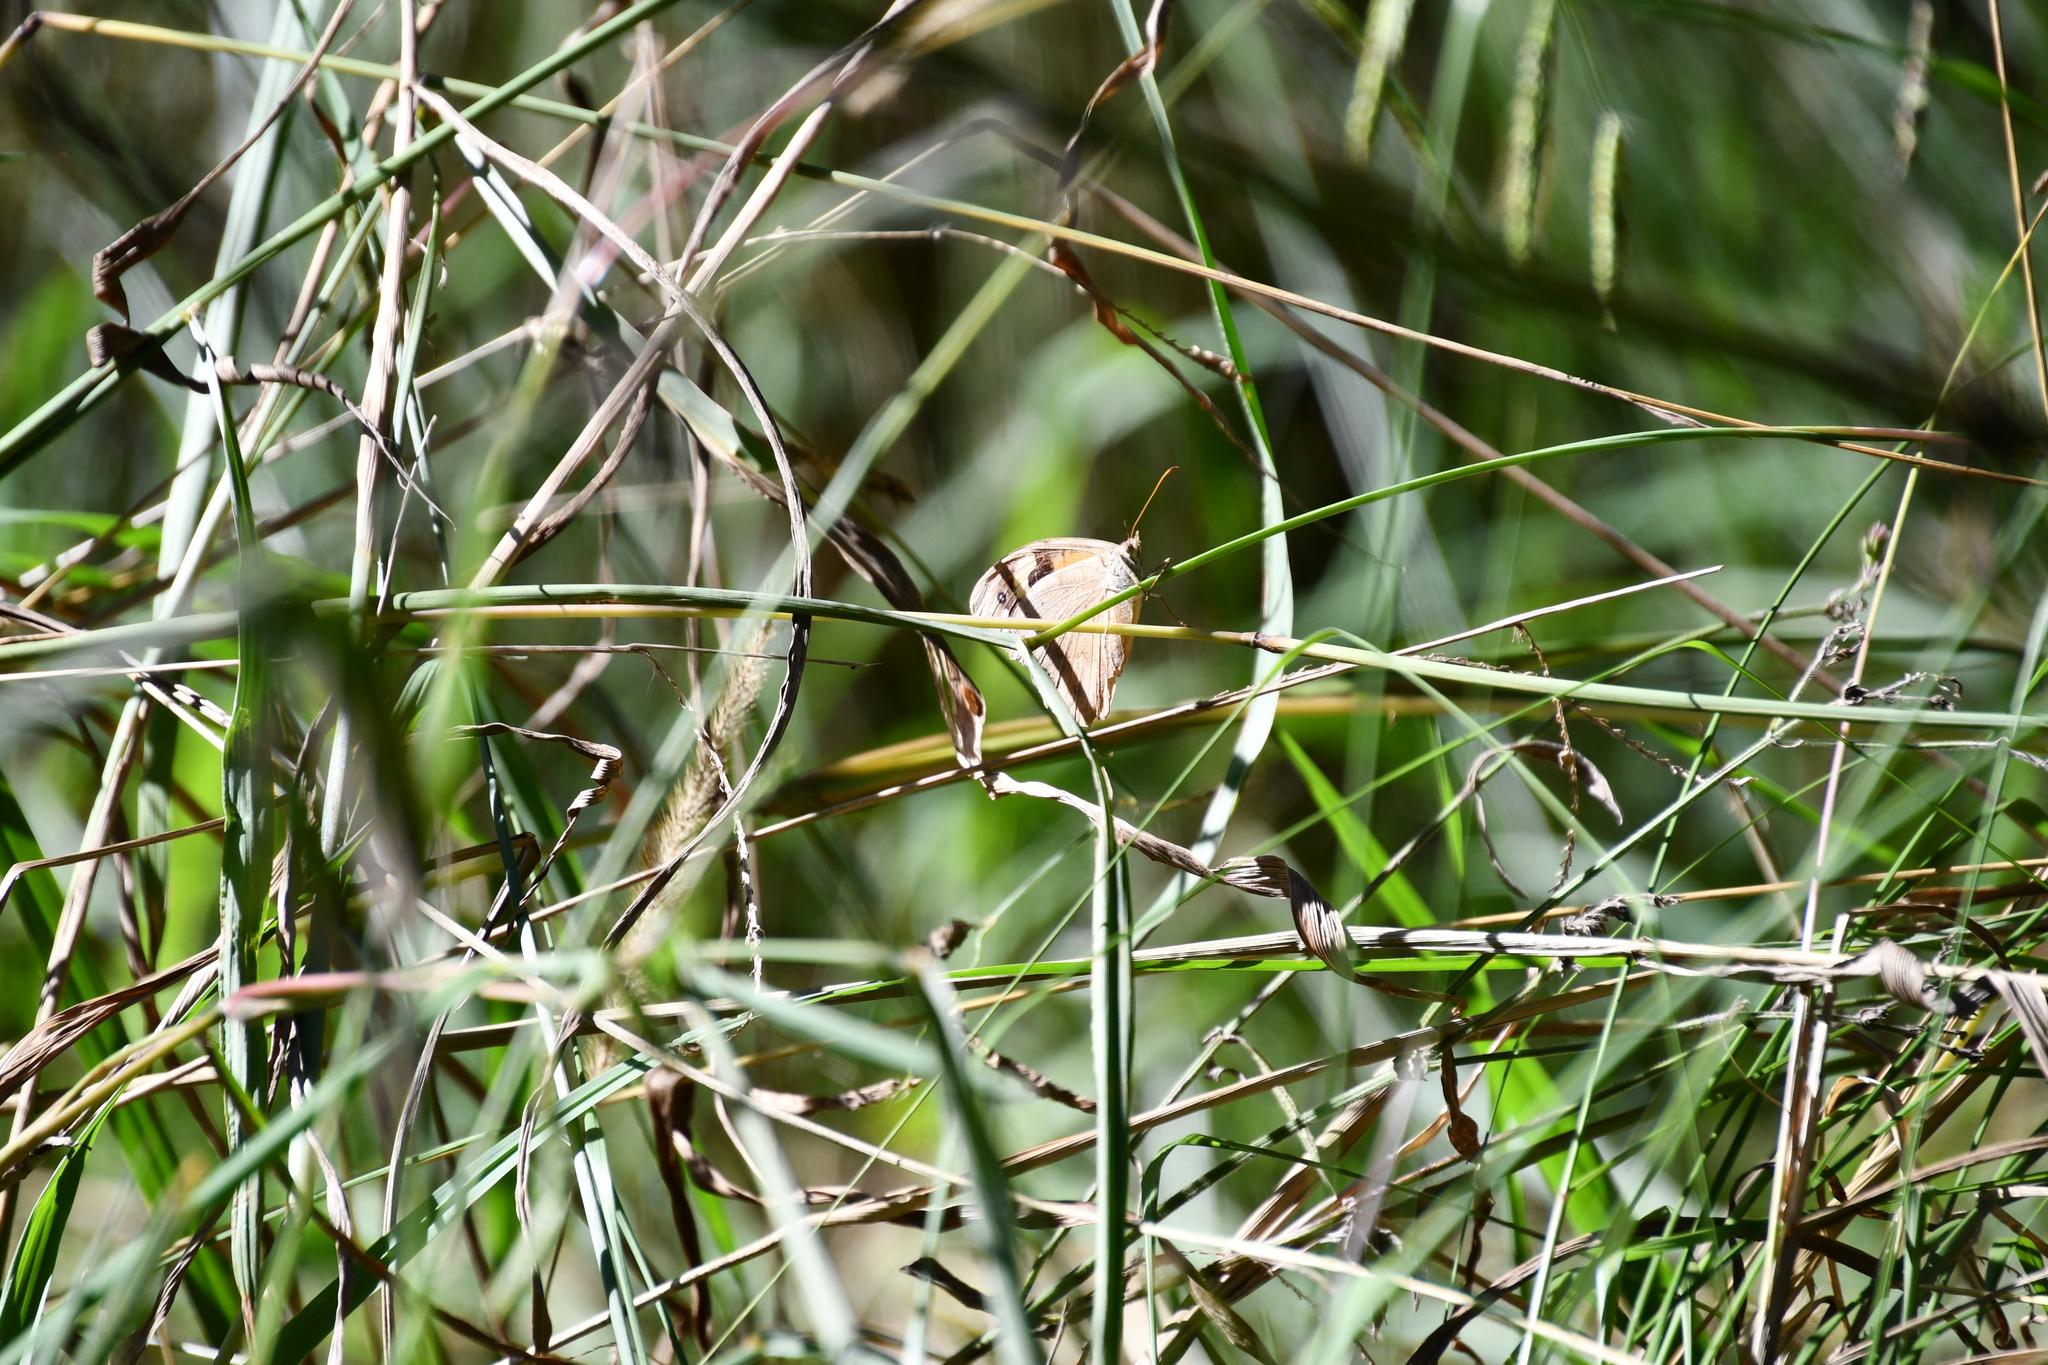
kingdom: Animalia
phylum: Arthropoda
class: Insecta
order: Lepidoptera
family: Nymphalidae
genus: Heteronympha
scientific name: Heteronympha merope
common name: Common brown
